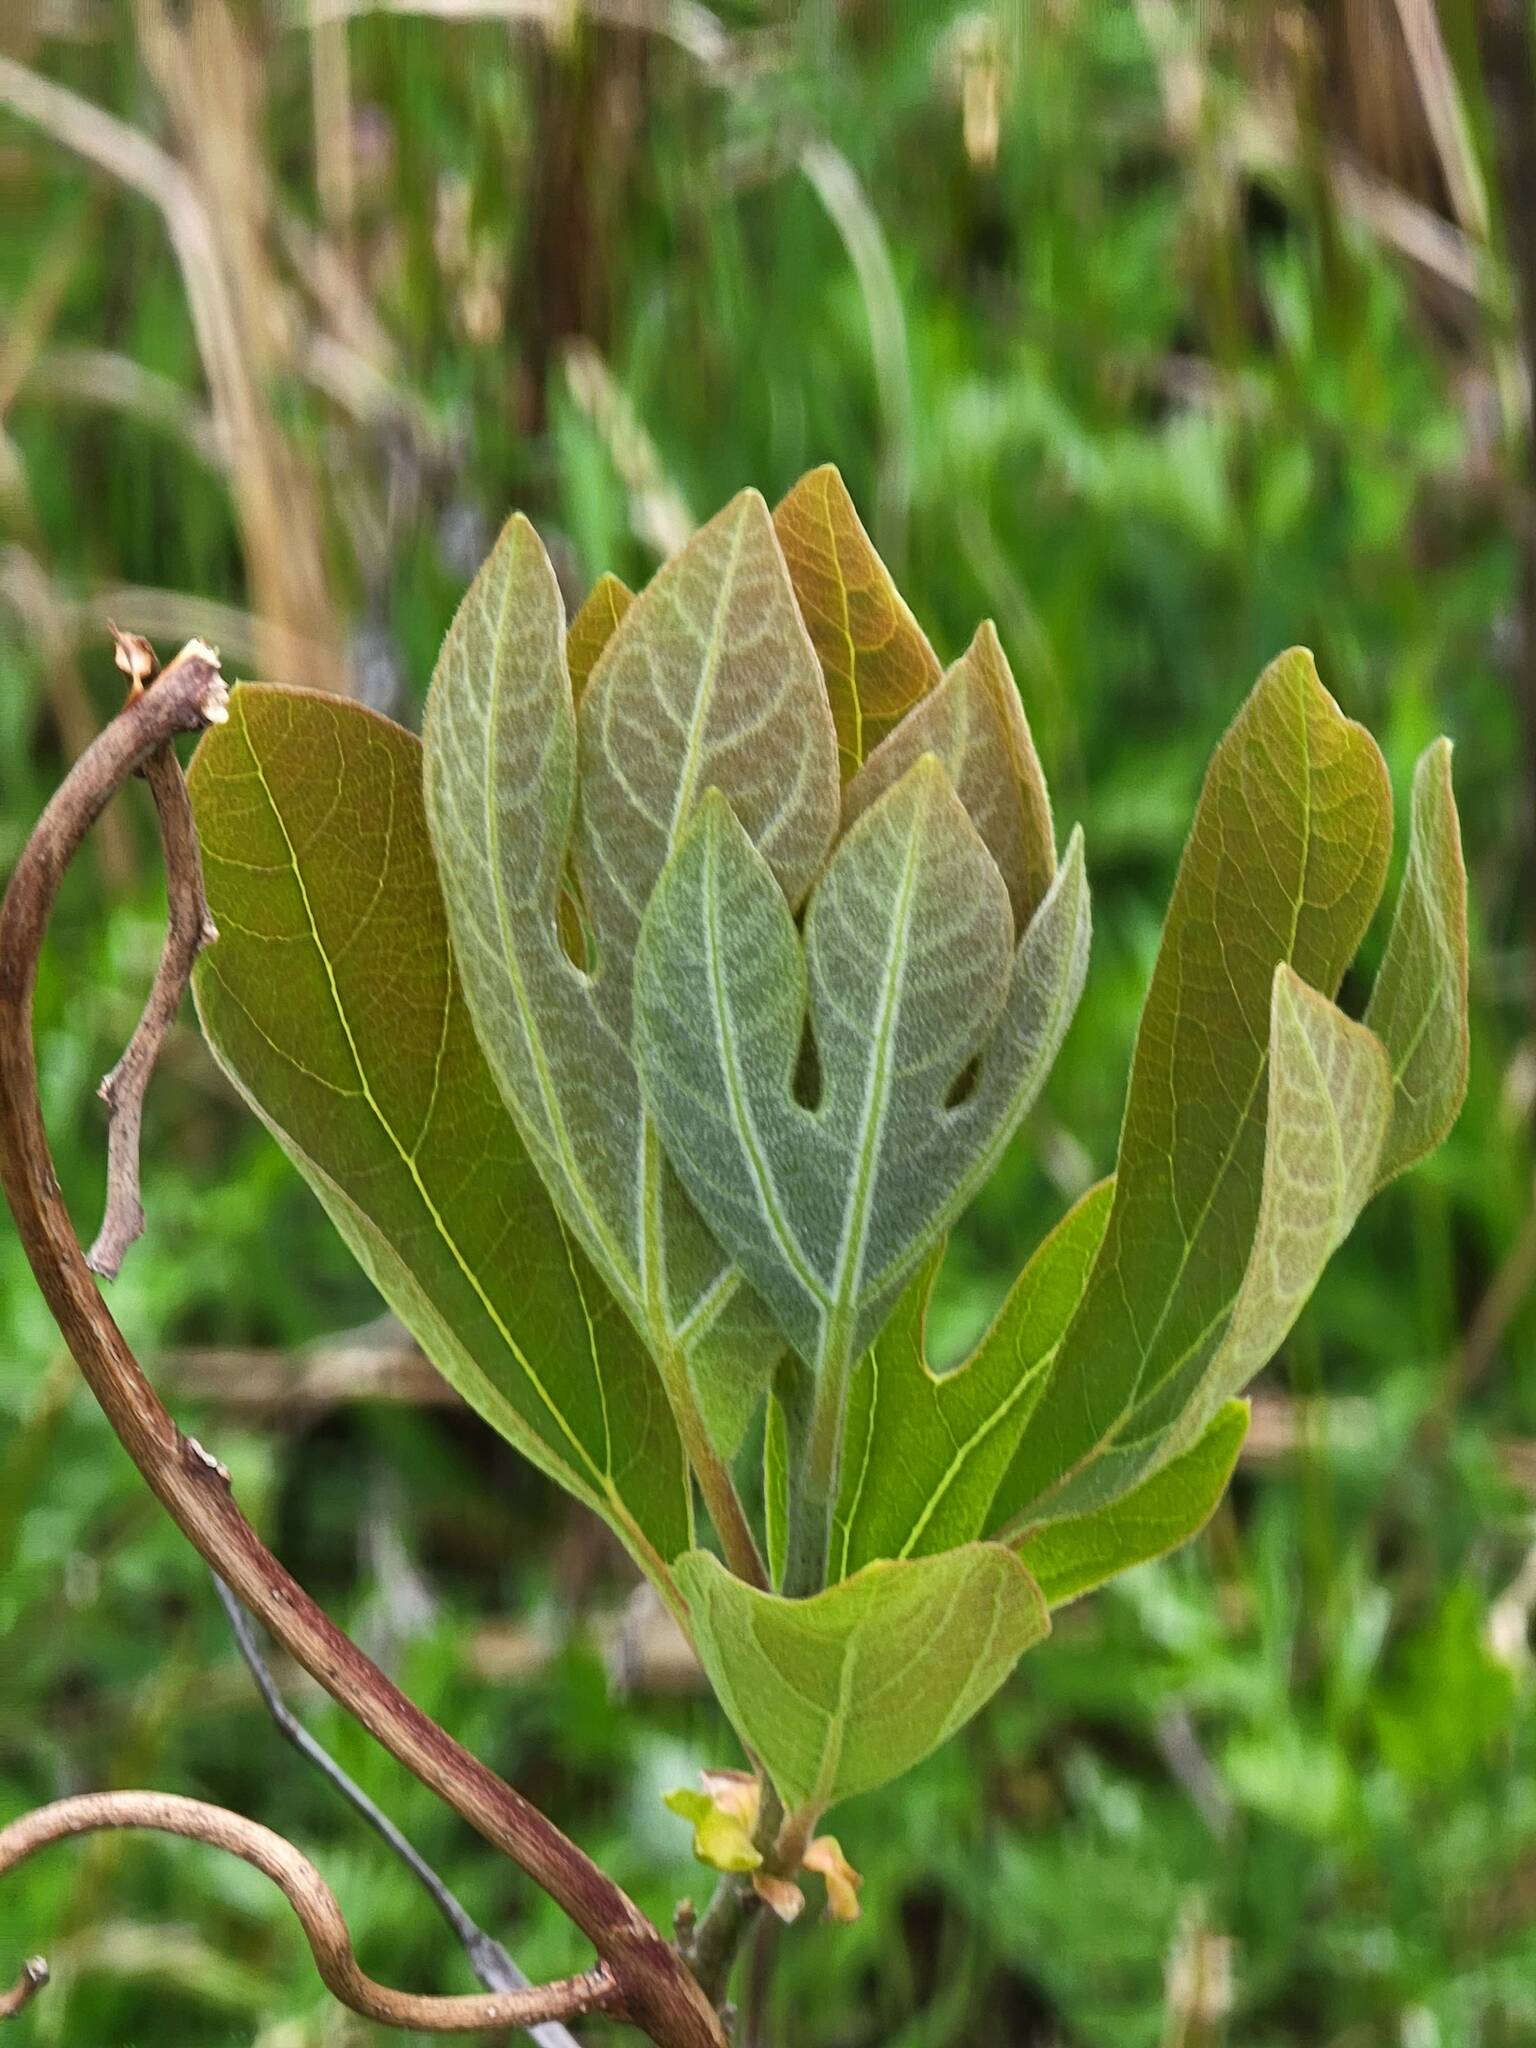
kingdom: Plantae
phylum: Tracheophyta
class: Magnoliopsida
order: Laurales
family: Lauraceae
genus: Sassafras
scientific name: Sassafras albidum
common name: Sassafras
